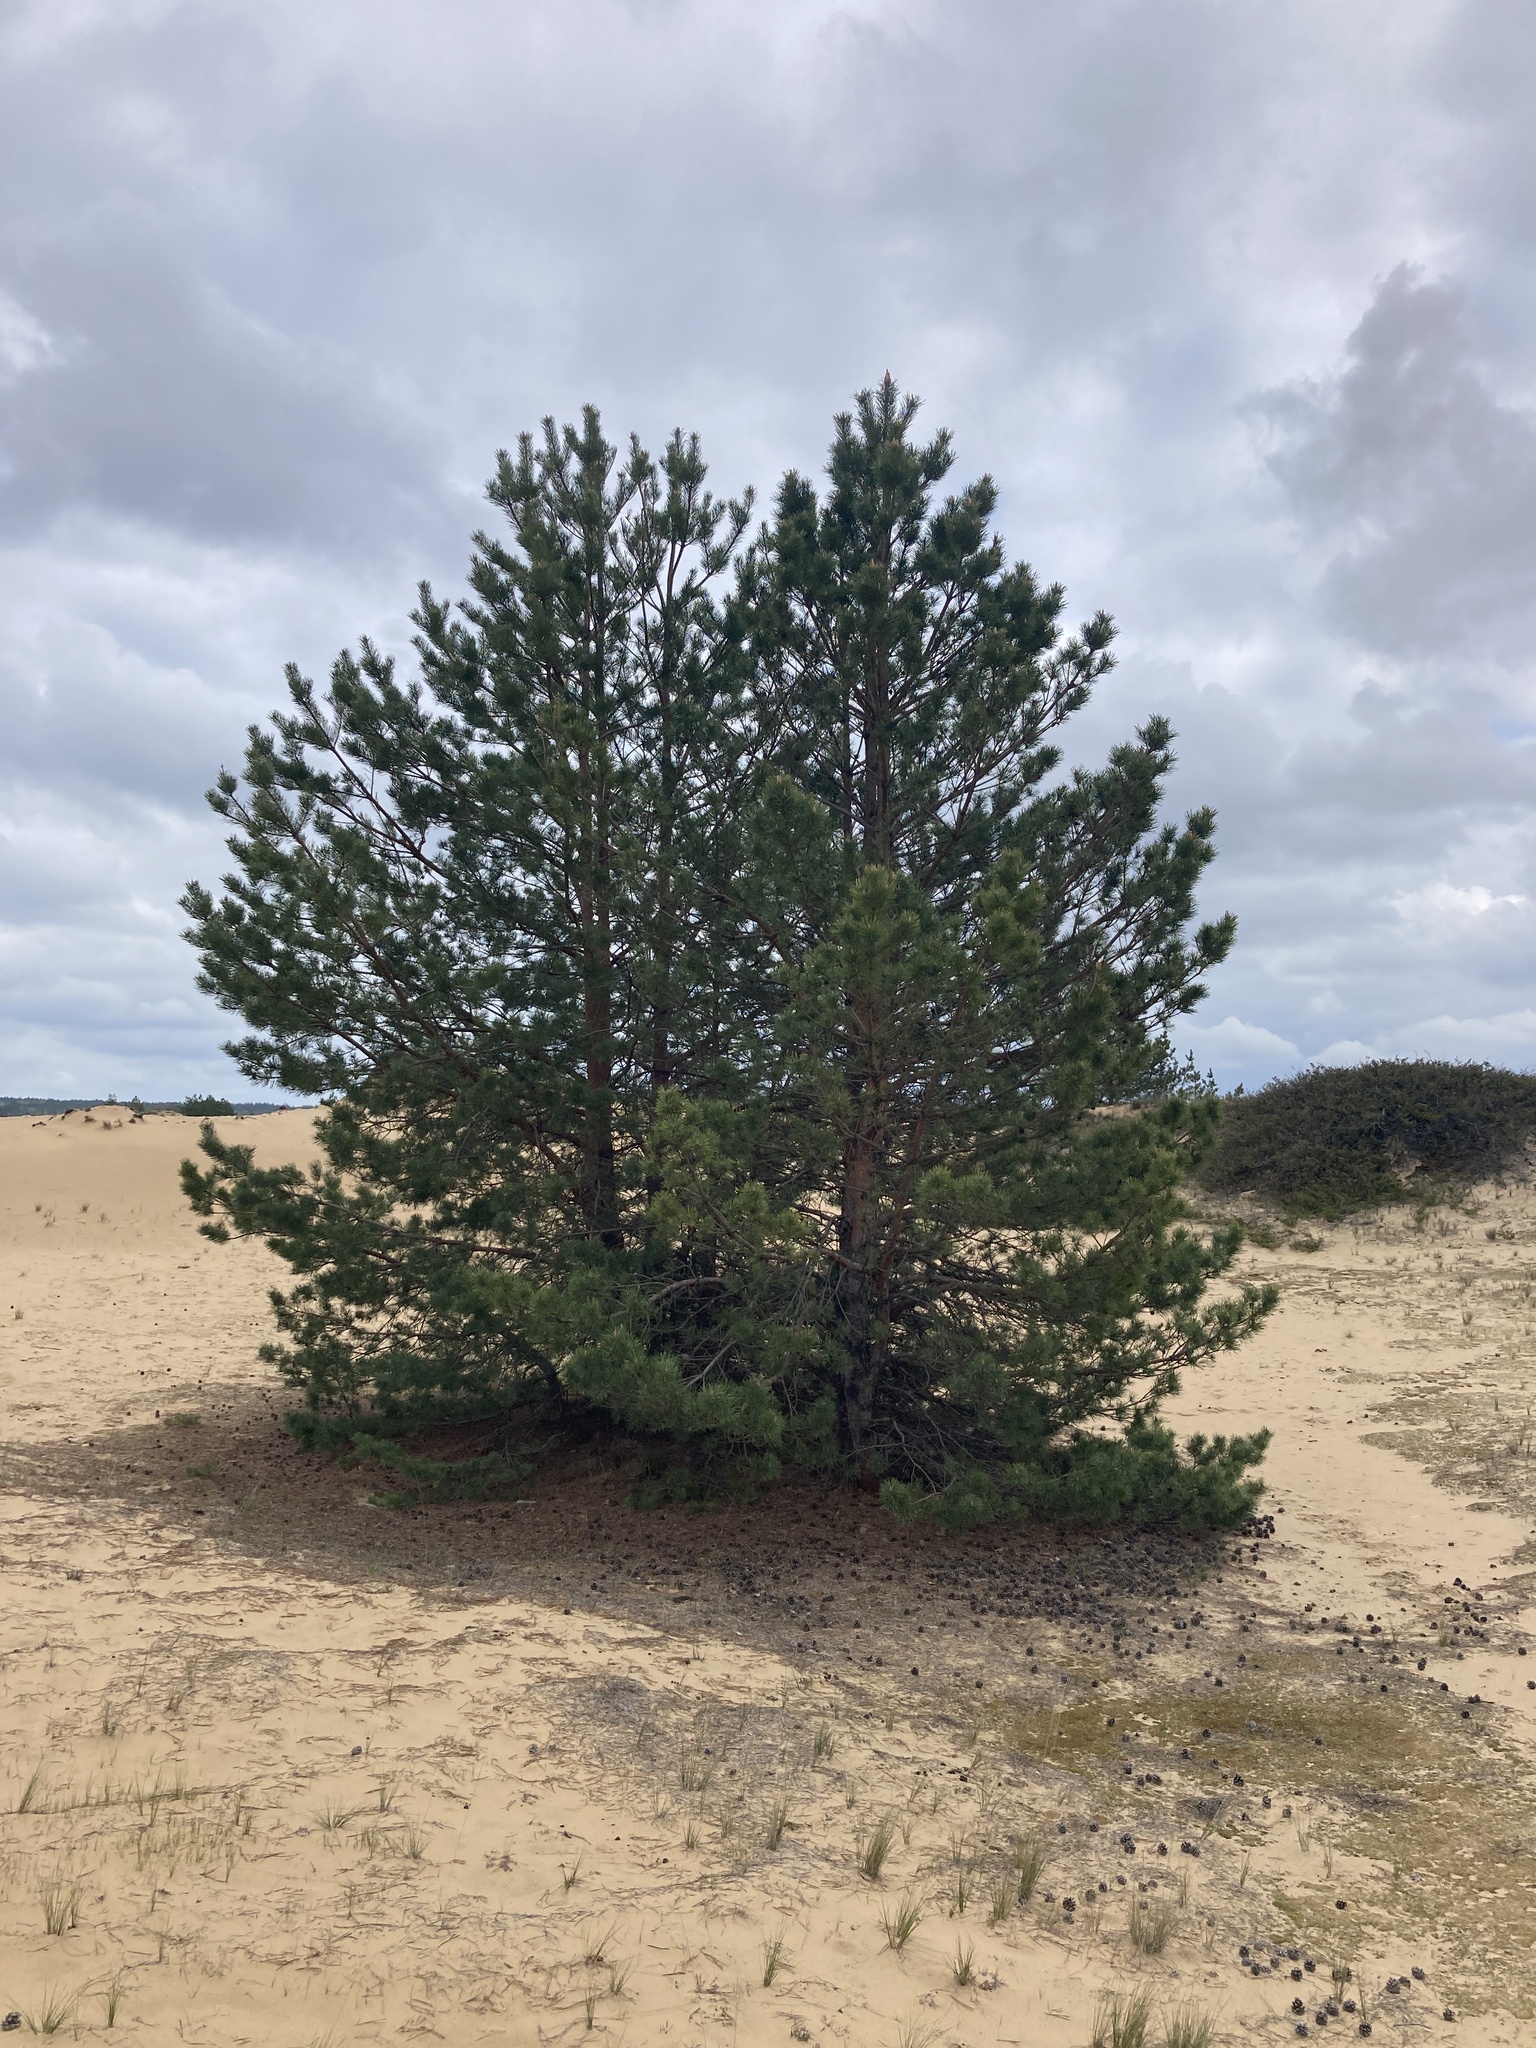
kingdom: Plantae
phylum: Tracheophyta
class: Pinopsida
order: Pinales
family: Pinaceae
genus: Pinus
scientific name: Pinus sylvestris
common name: Scots pine
